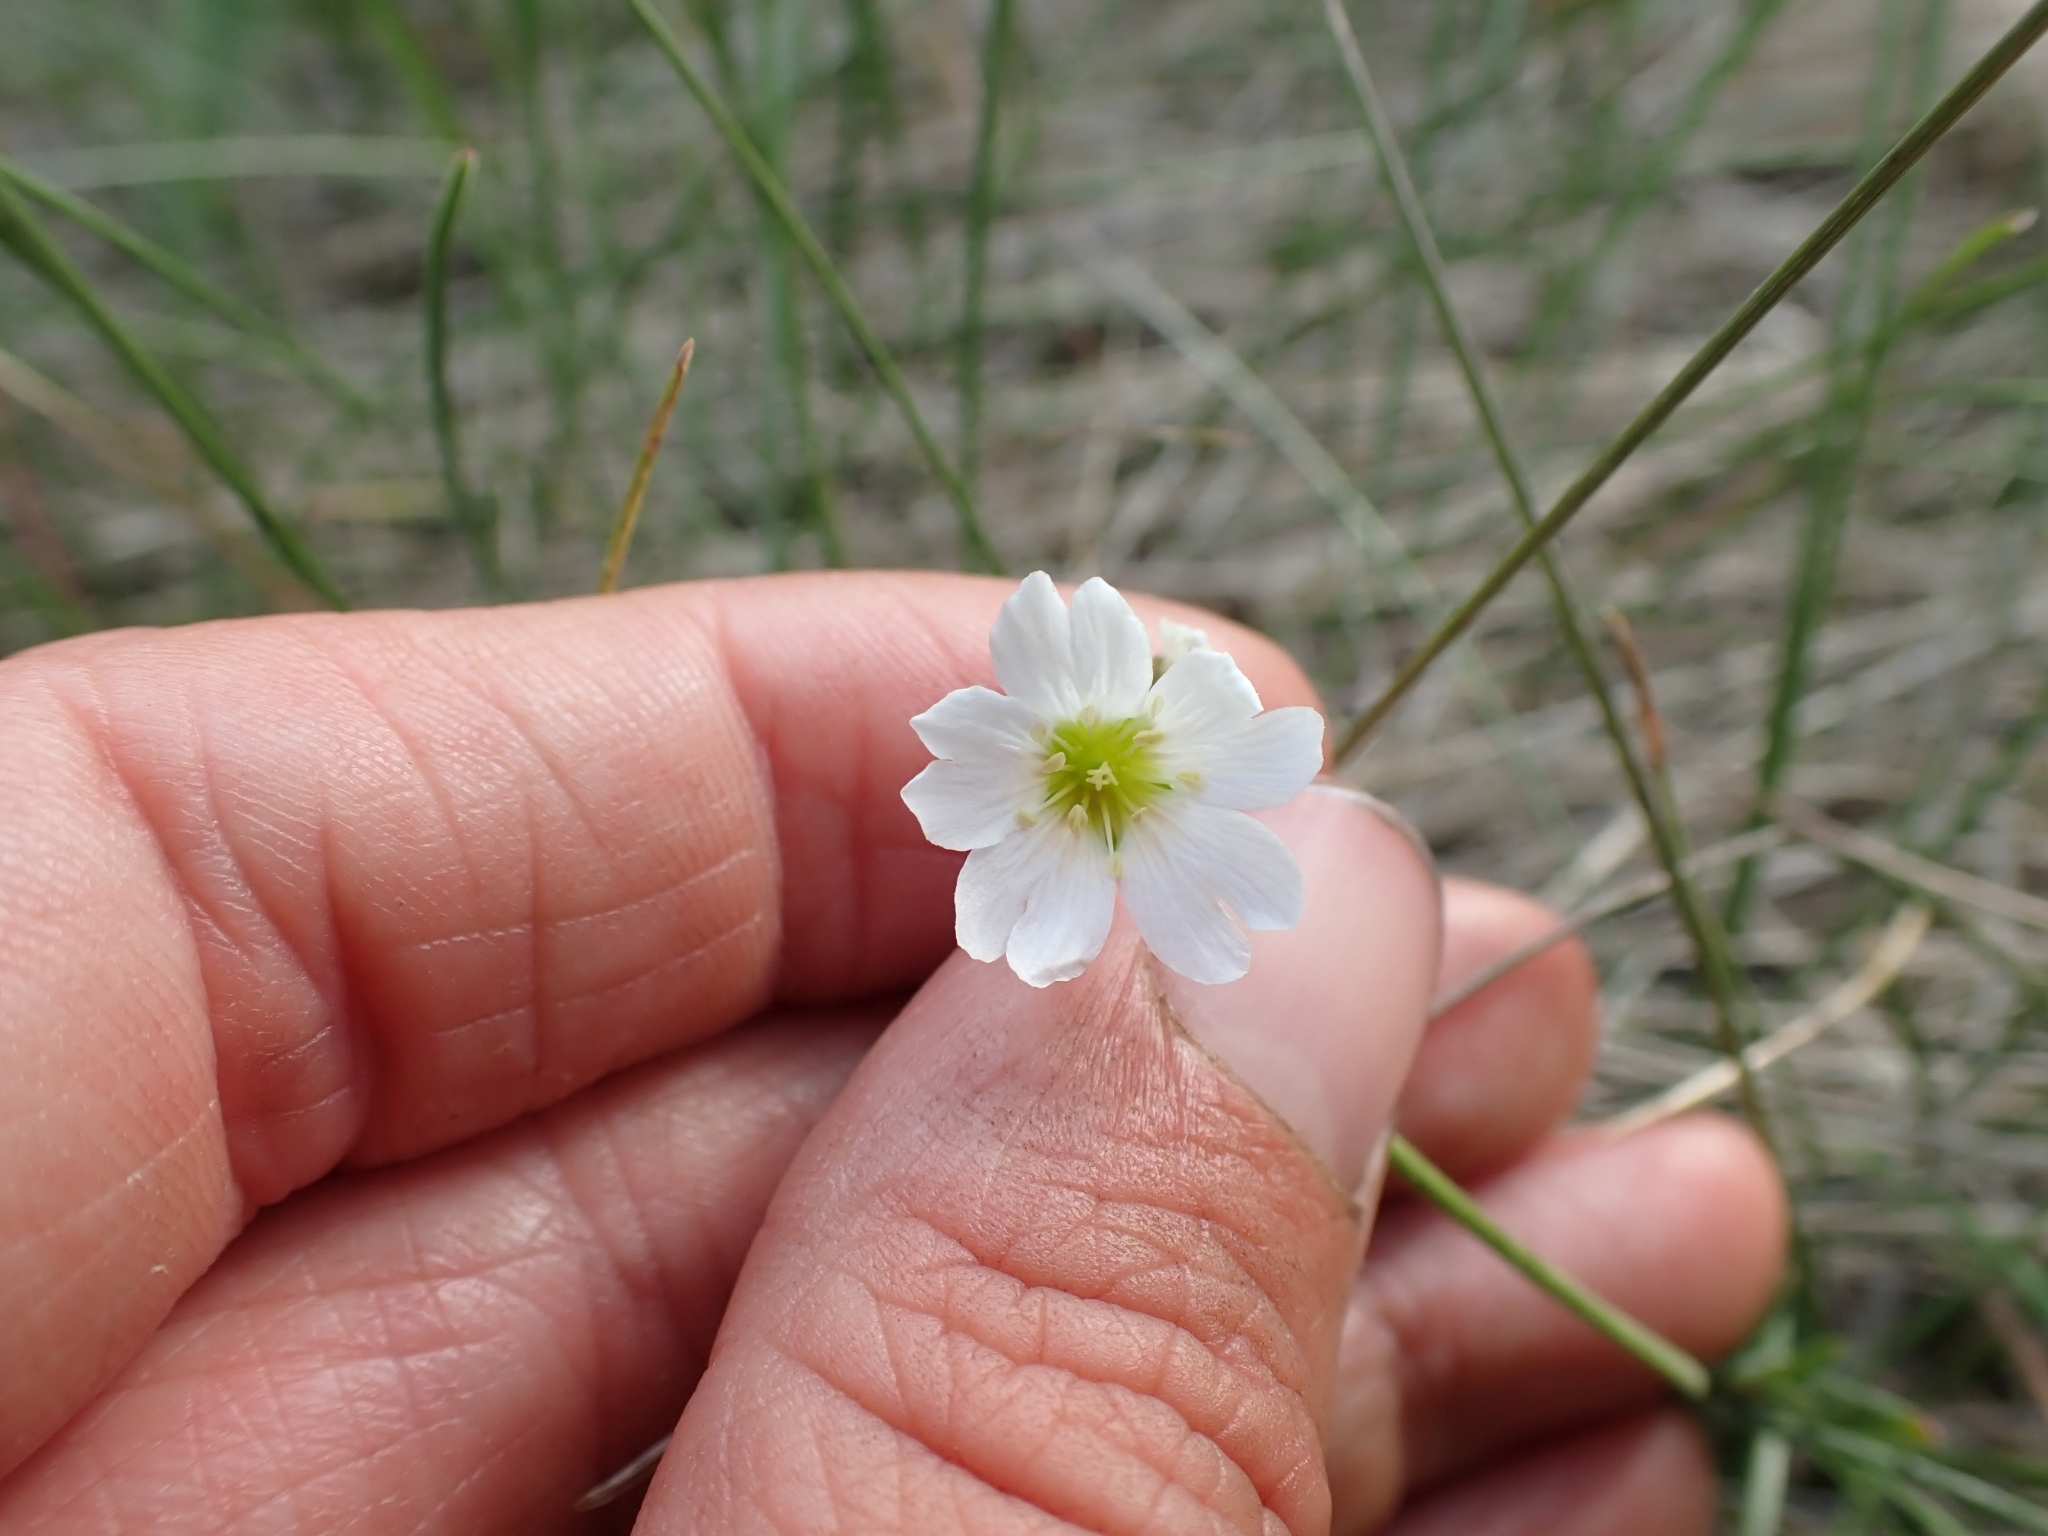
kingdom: Plantae
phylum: Tracheophyta
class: Magnoliopsida
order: Caryophyllales
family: Caryophyllaceae
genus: Cerastium
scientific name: Cerastium arvense
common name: Field mouse-ear
